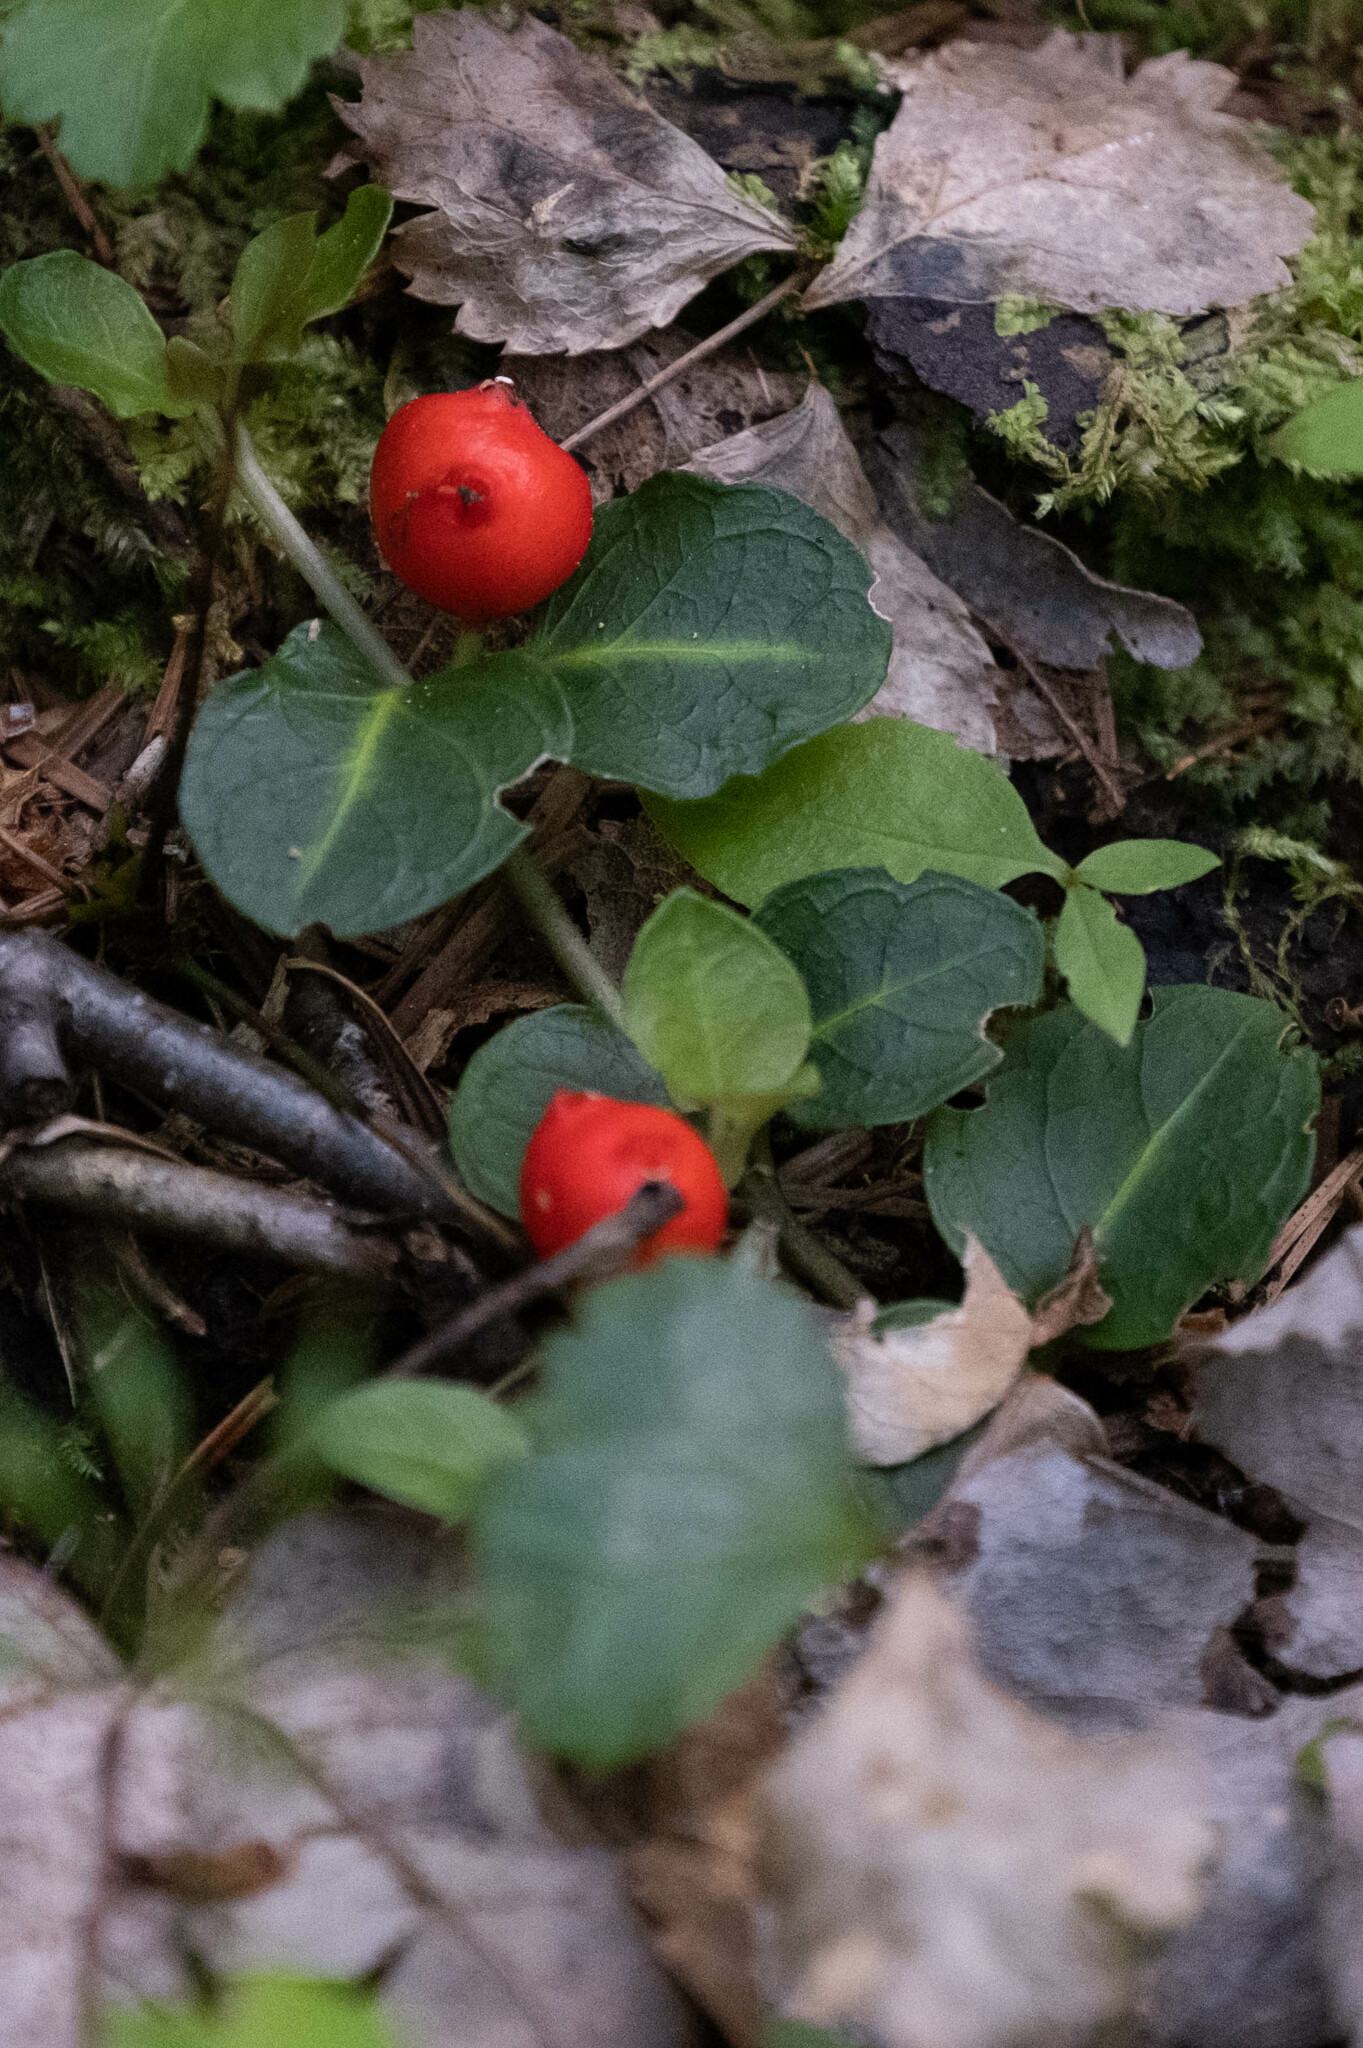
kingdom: Plantae
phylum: Tracheophyta
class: Magnoliopsida
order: Gentianales
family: Rubiaceae
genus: Mitchella
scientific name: Mitchella repens
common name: Partridge-berry
